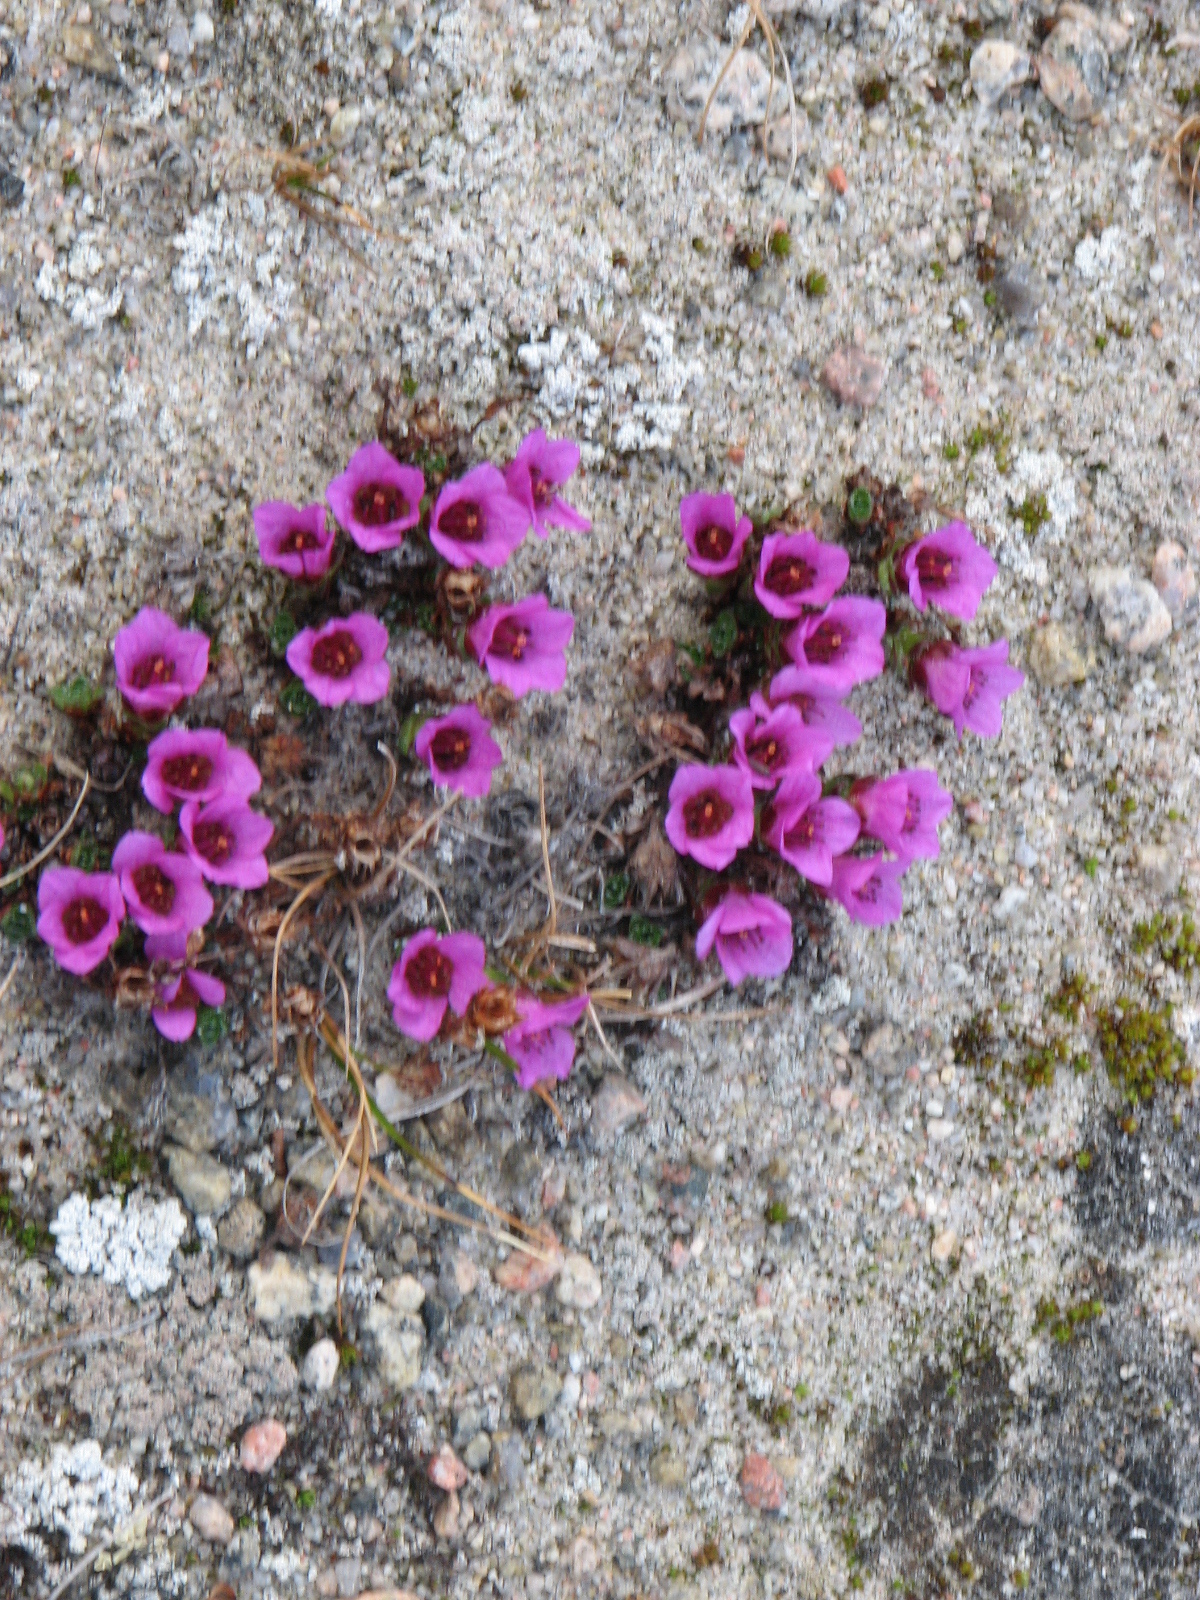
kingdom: Plantae
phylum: Tracheophyta
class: Magnoliopsida
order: Saxifragales
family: Saxifragaceae
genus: Saxifraga
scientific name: Saxifraga oppositifolia
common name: Purple saxifrage
